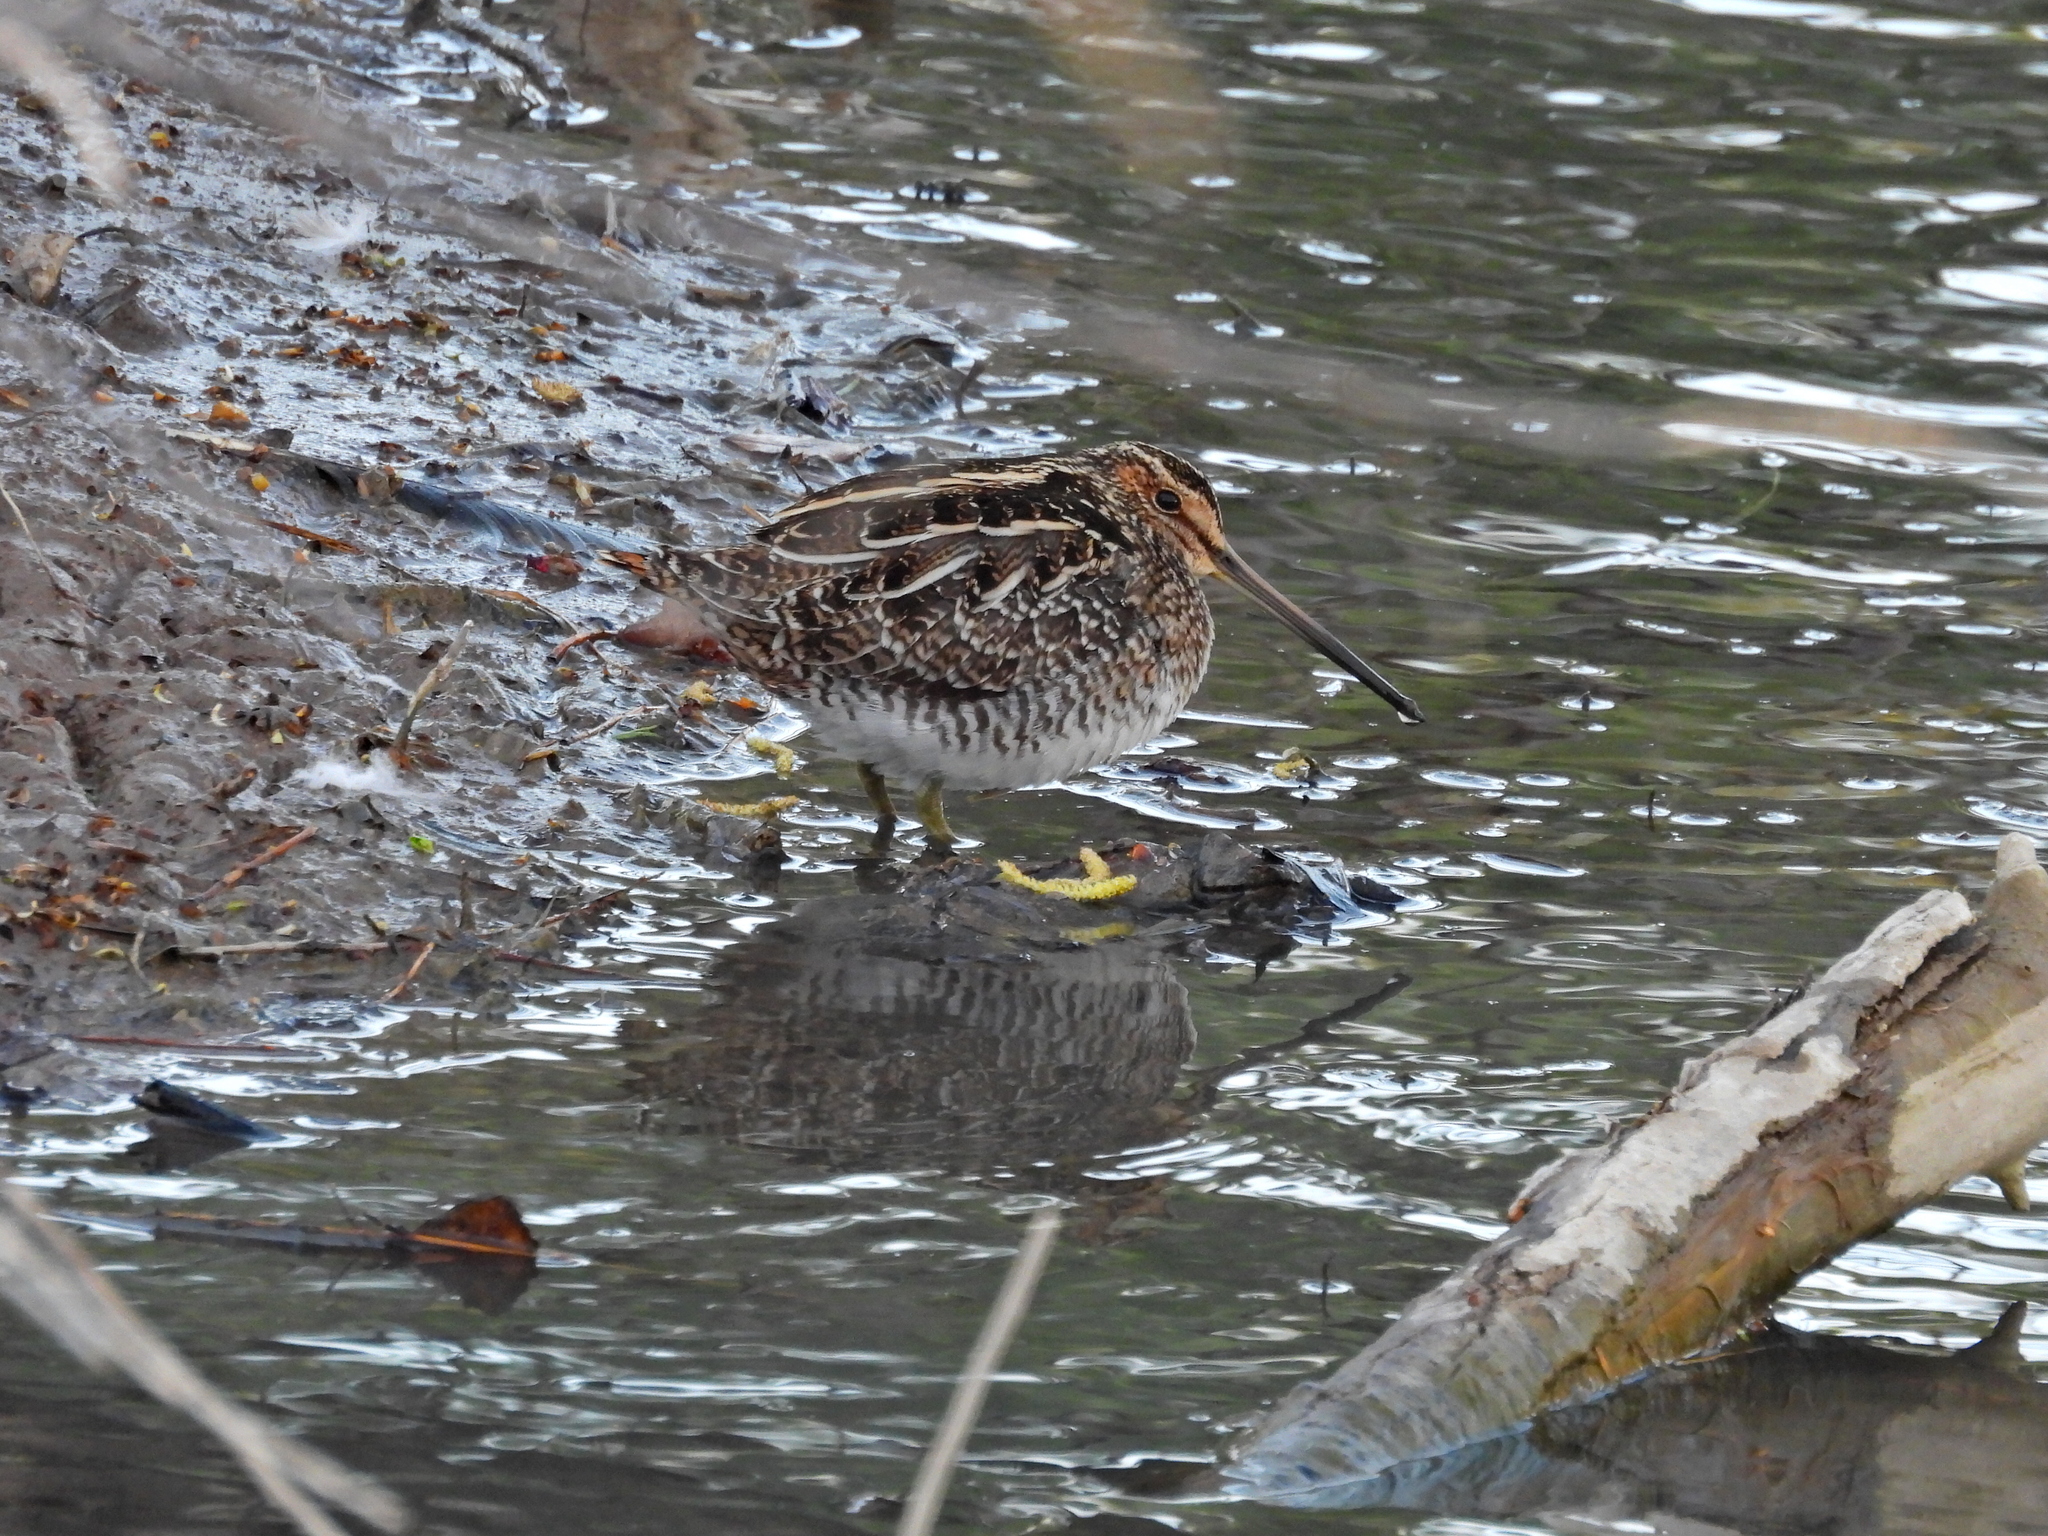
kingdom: Animalia
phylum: Chordata
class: Aves
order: Charadriiformes
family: Scolopacidae
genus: Gallinago
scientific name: Gallinago delicata
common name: Wilson's snipe
